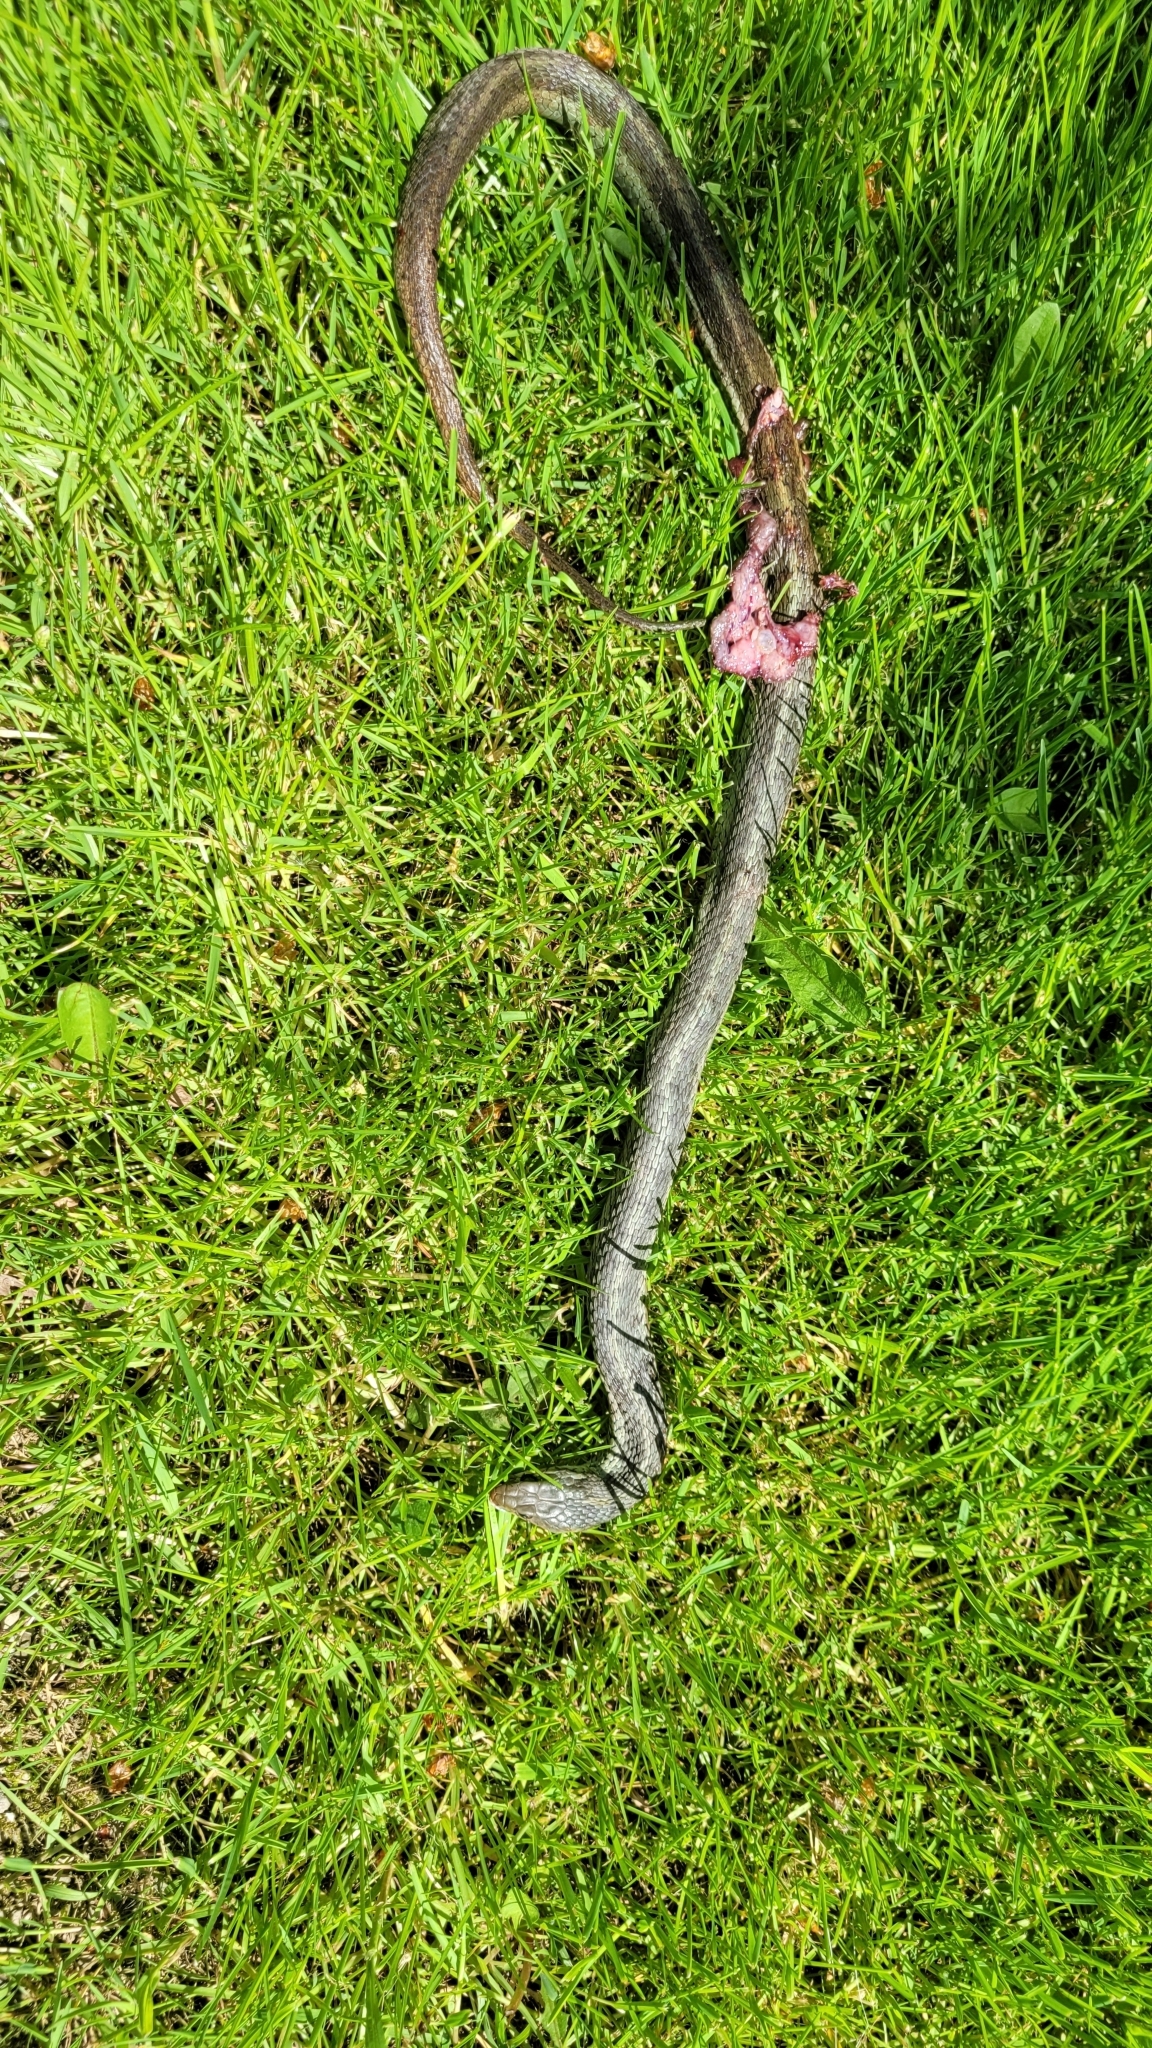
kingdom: Animalia
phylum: Chordata
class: Squamata
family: Colubridae
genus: Thamnophis
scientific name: Thamnophis sirtalis
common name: Common garter snake
